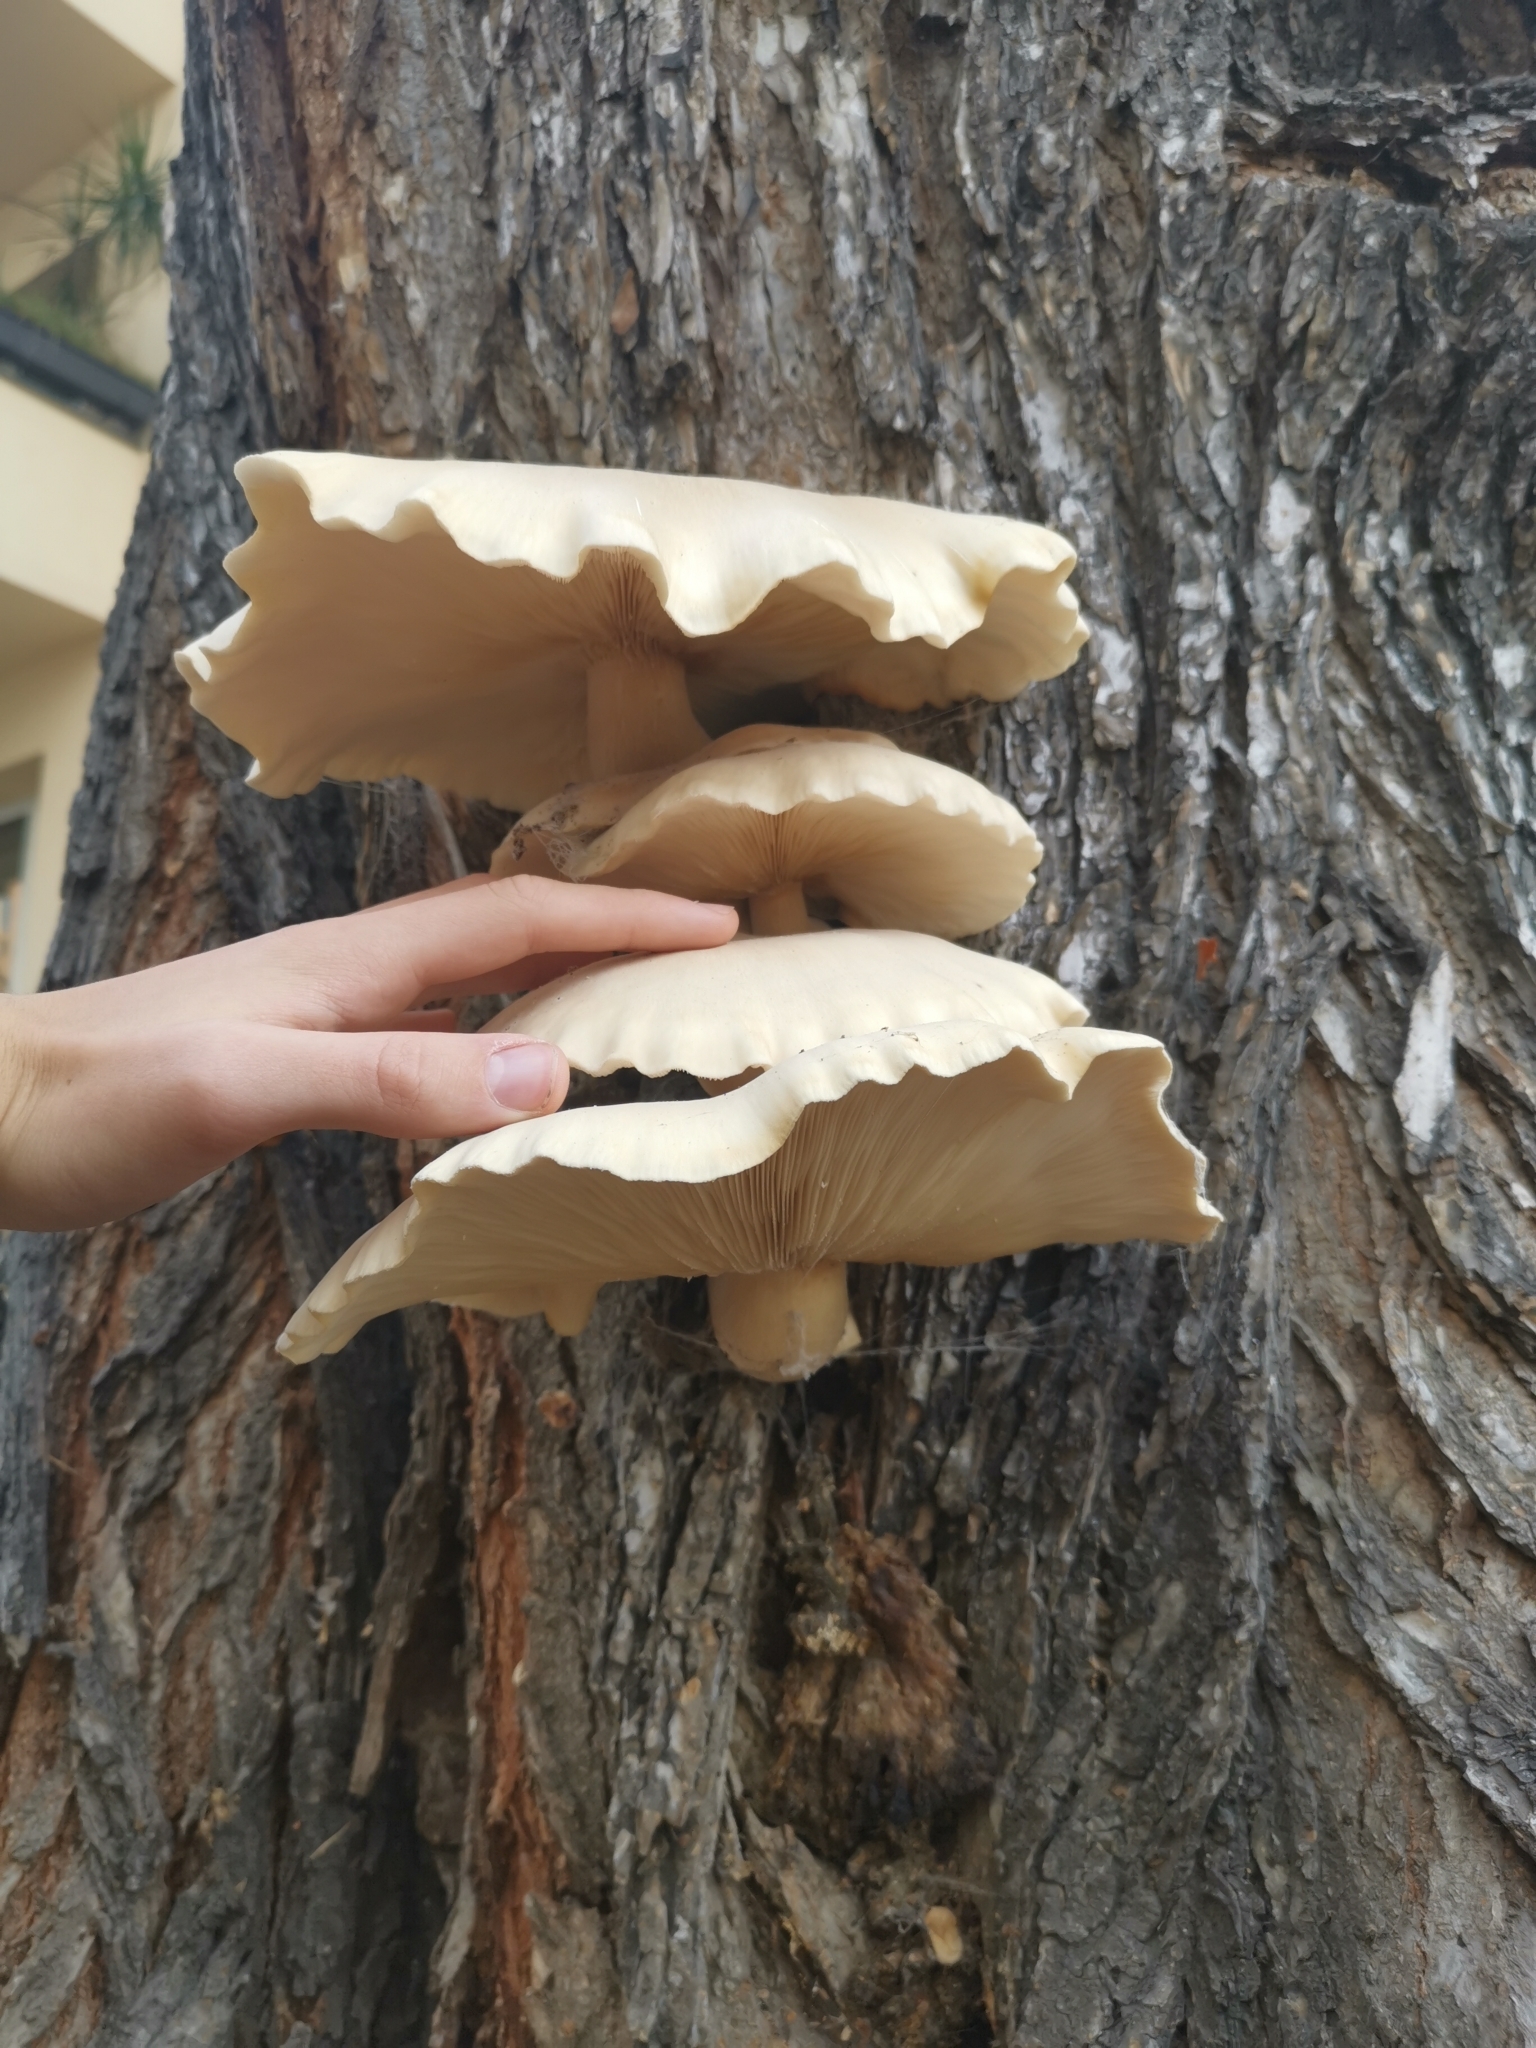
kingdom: Fungi
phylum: Basidiomycota
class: Agaricomycetes
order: Agaricales
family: Lyophyllaceae
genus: Hypsizygus
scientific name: Hypsizygus ulmarius
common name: Elm leech
